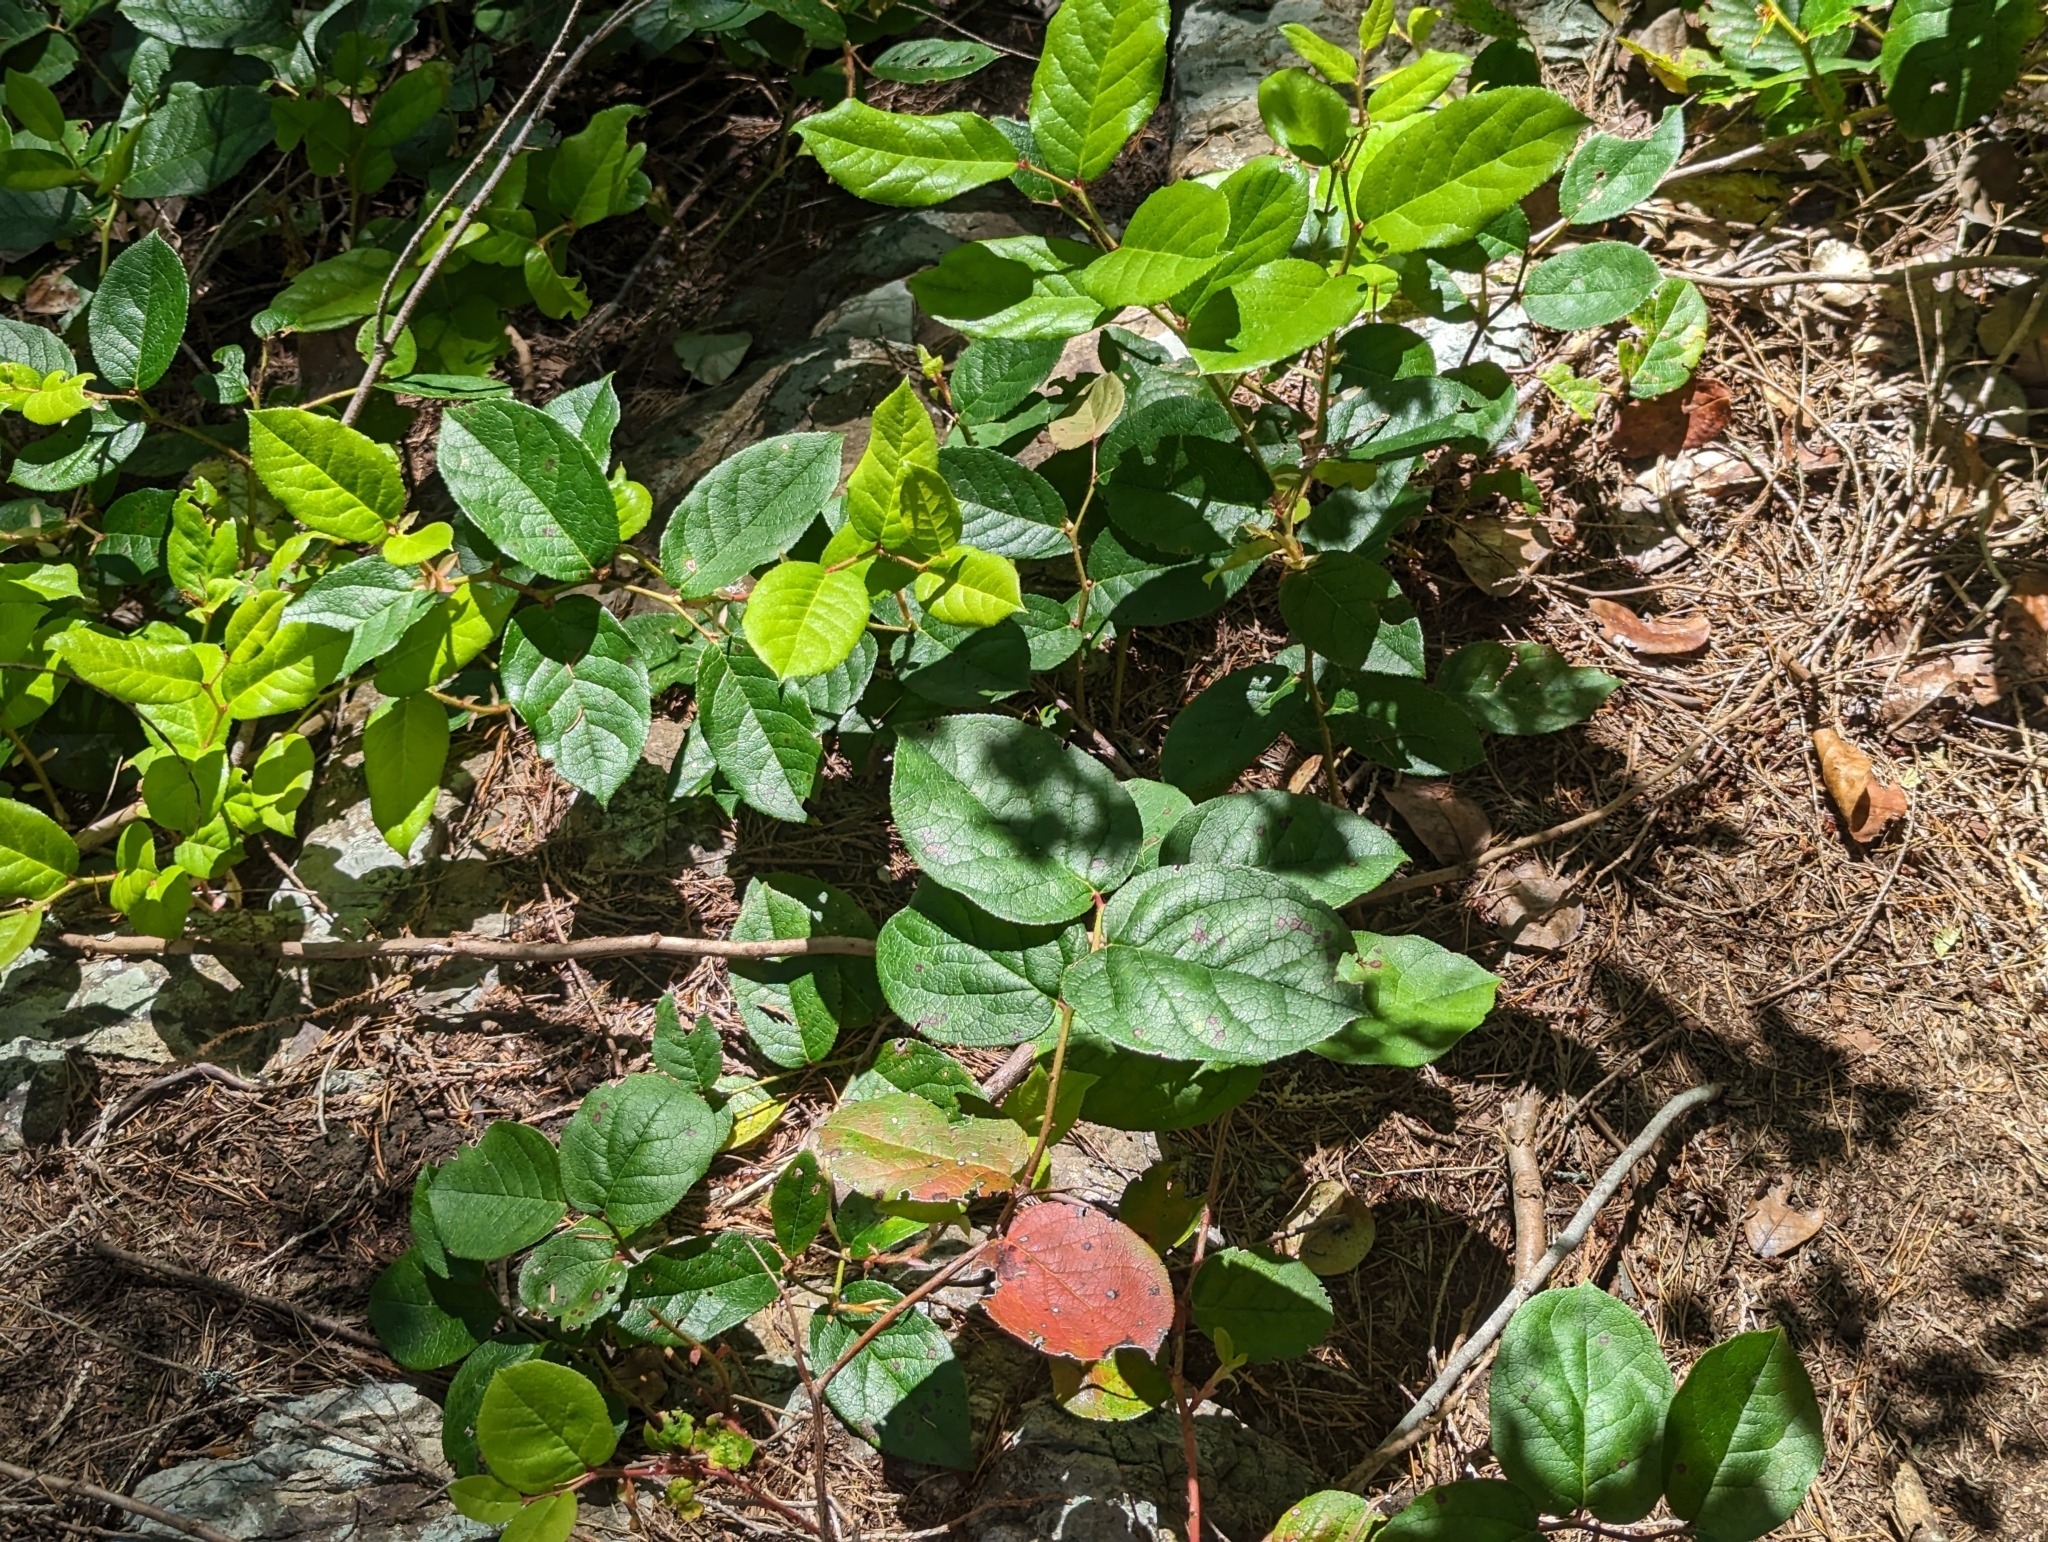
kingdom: Plantae
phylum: Tracheophyta
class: Magnoliopsida
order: Ericales
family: Ericaceae
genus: Gaultheria
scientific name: Gaultheria shallon
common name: Shallon
